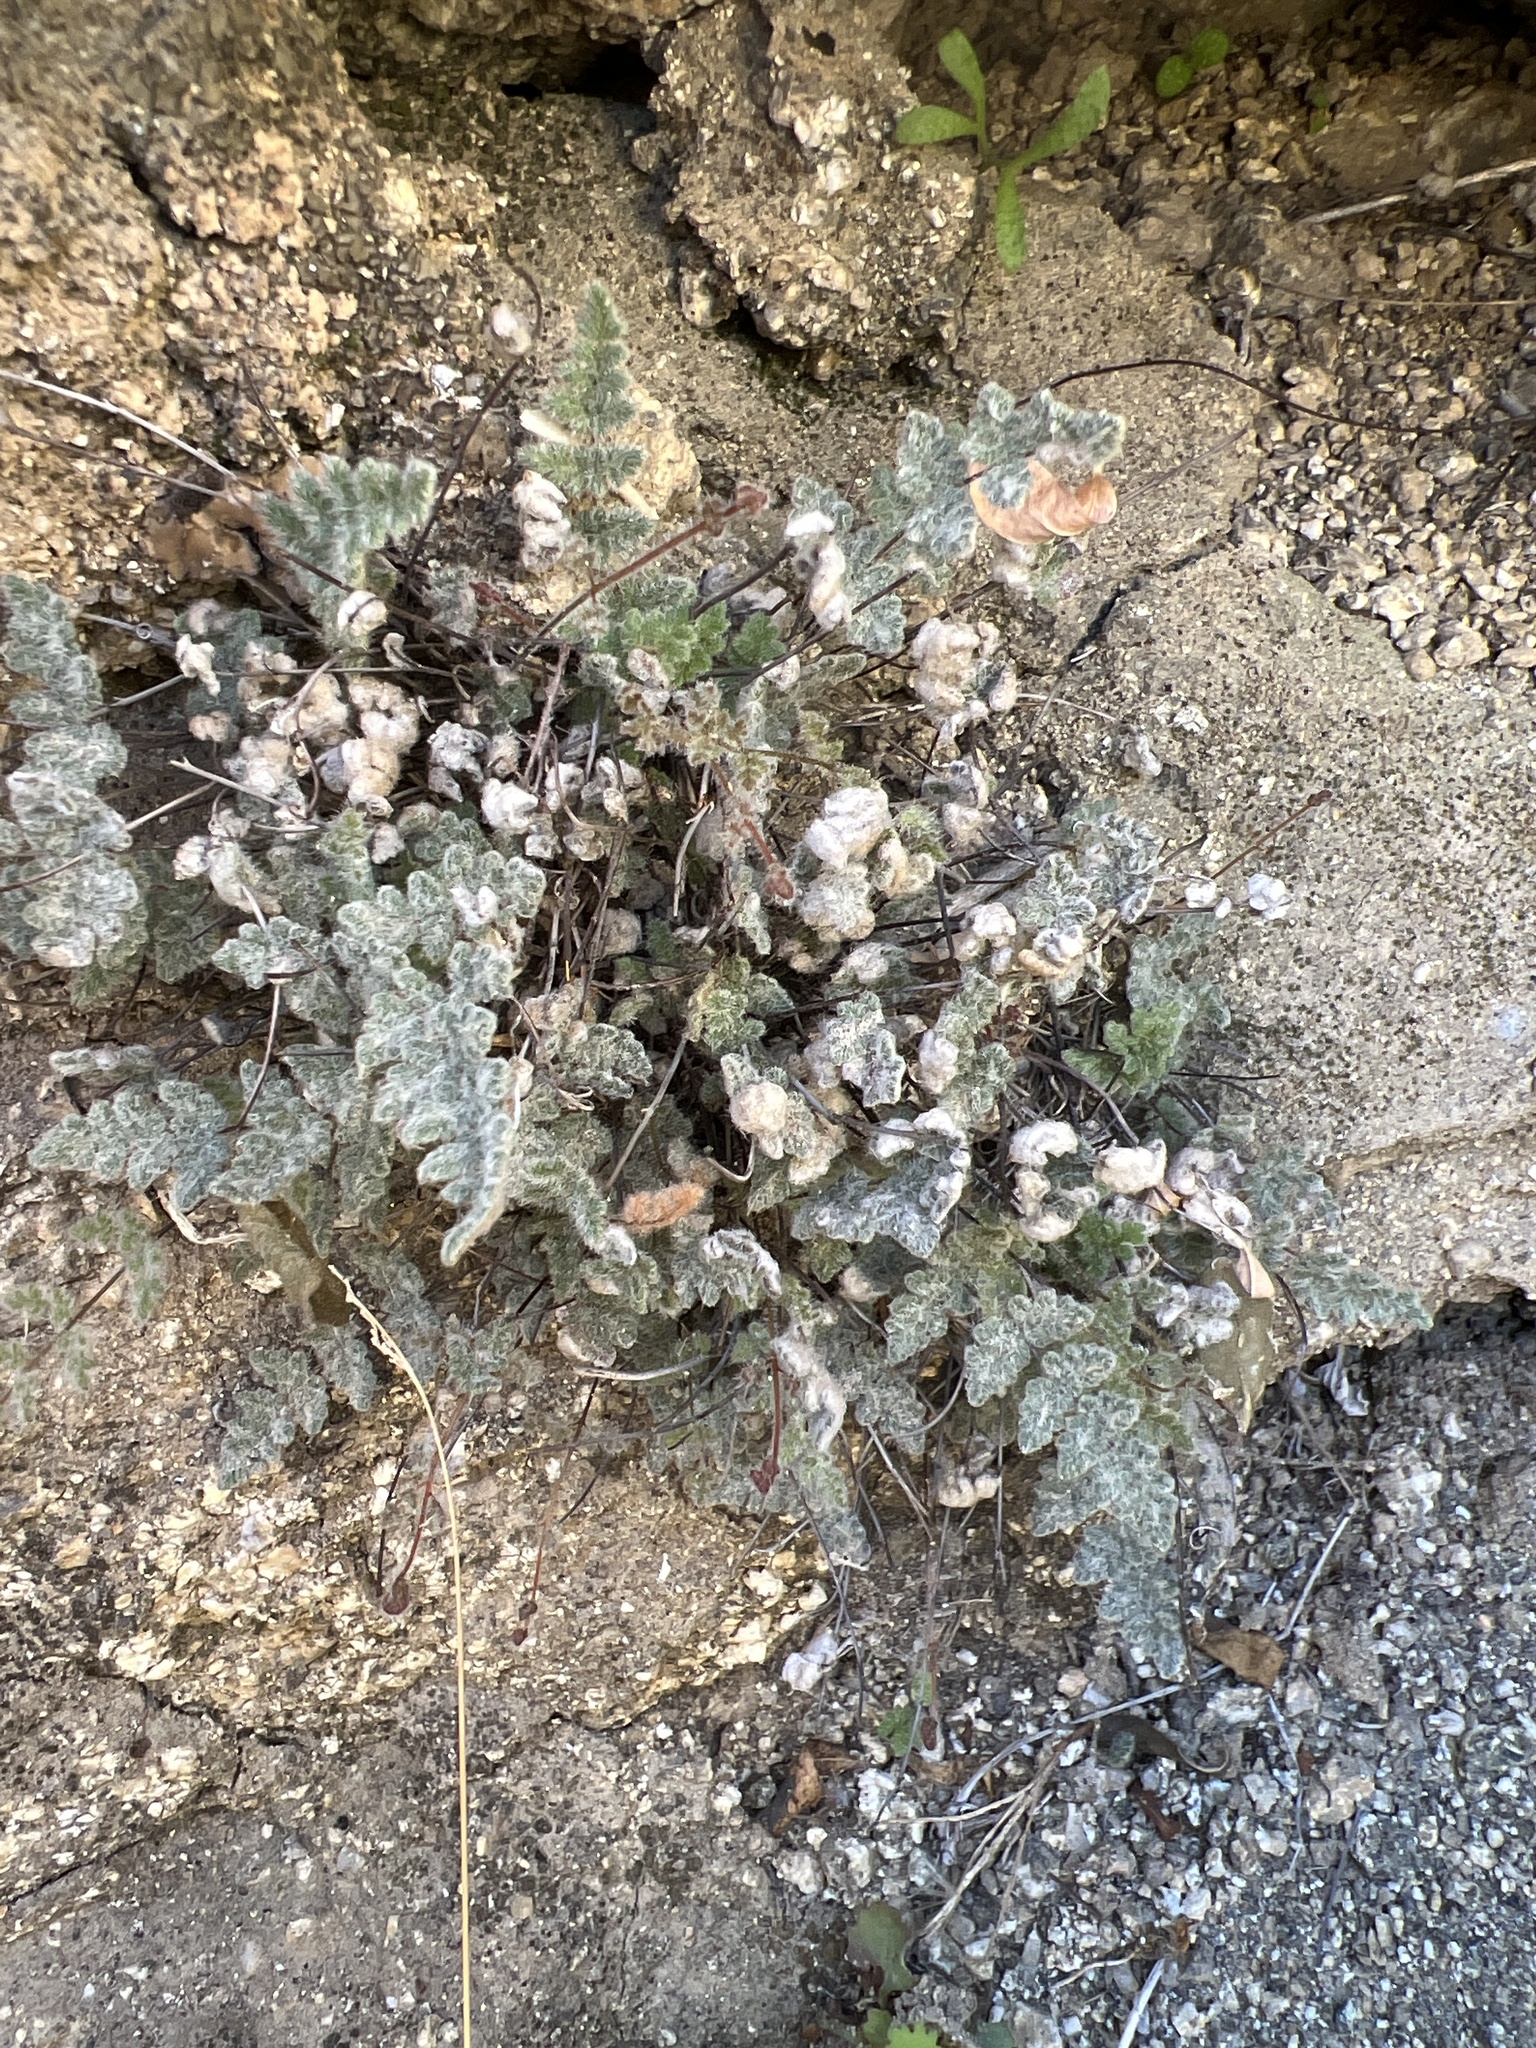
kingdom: Plantae
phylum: Tracheophyta
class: Polypodiopsida
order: Polypodiales
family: Pteridaceae
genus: Myriopteris
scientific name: Myriopteris parryi
